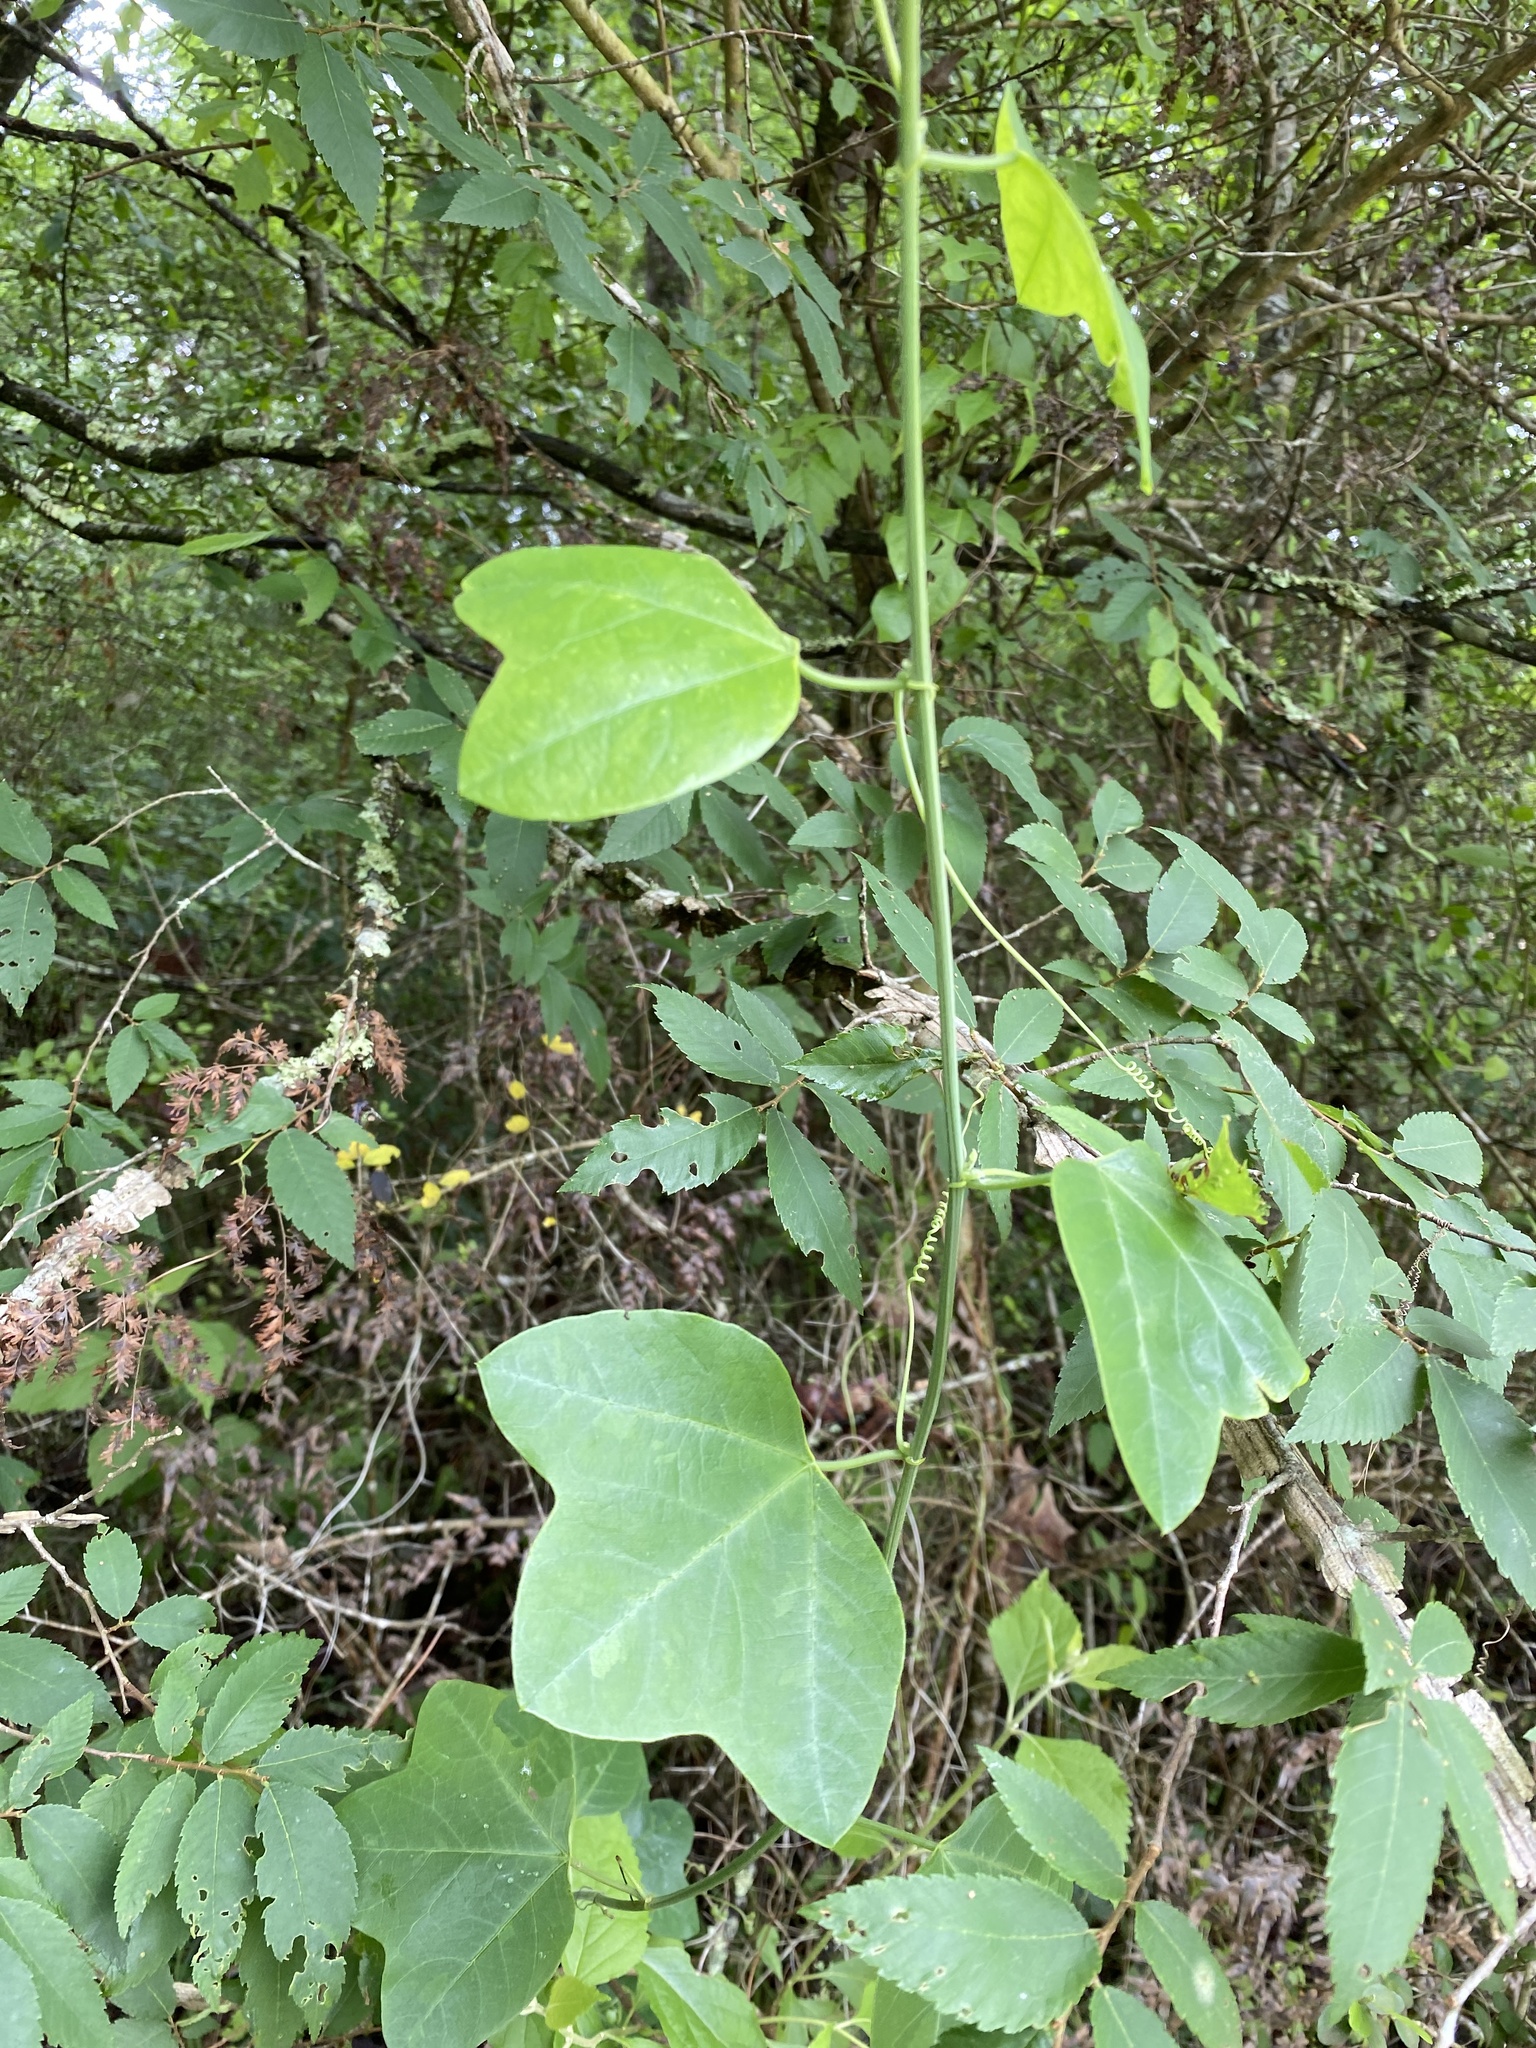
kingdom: Plantae
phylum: Tracheophyta
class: Magnoliopsida
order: Malpighiales
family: Passifloraceae
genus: Passiflora
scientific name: Passiflora lutea
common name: Yellow passionflower
